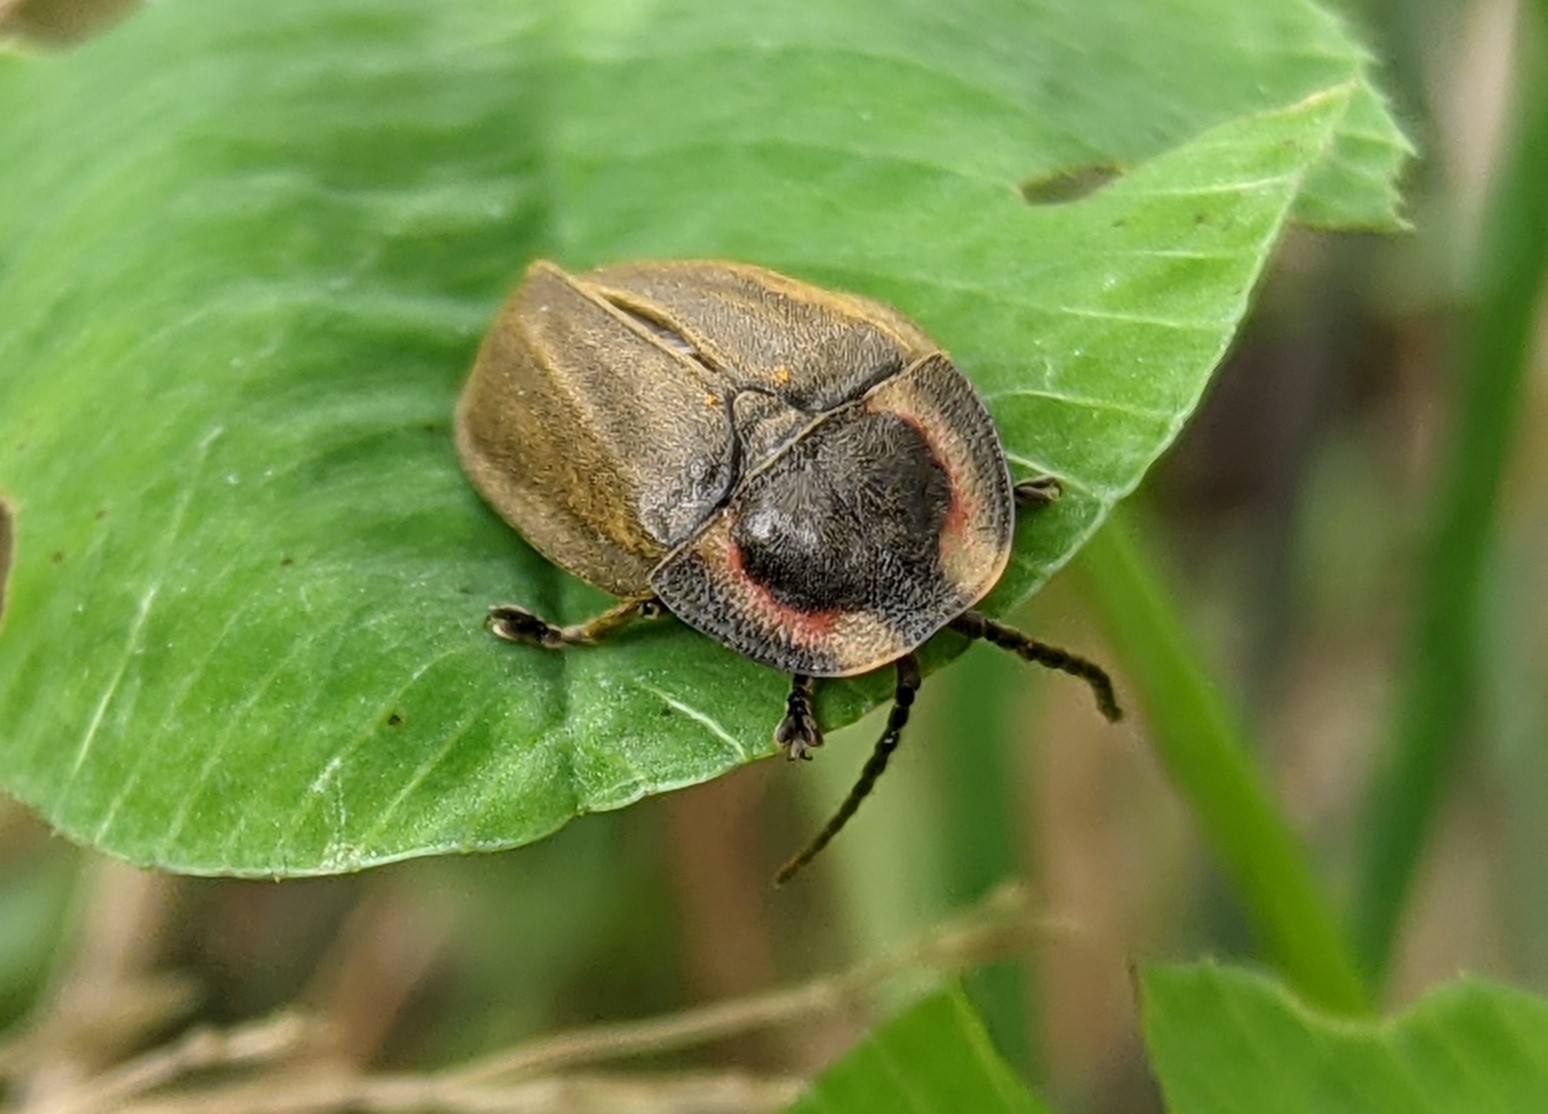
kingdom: Animalia
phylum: Arthropoda
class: Insecta
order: Coleoptera
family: Lampyridae
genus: Photinus
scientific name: Photinus corrusca
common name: Winter firefly
